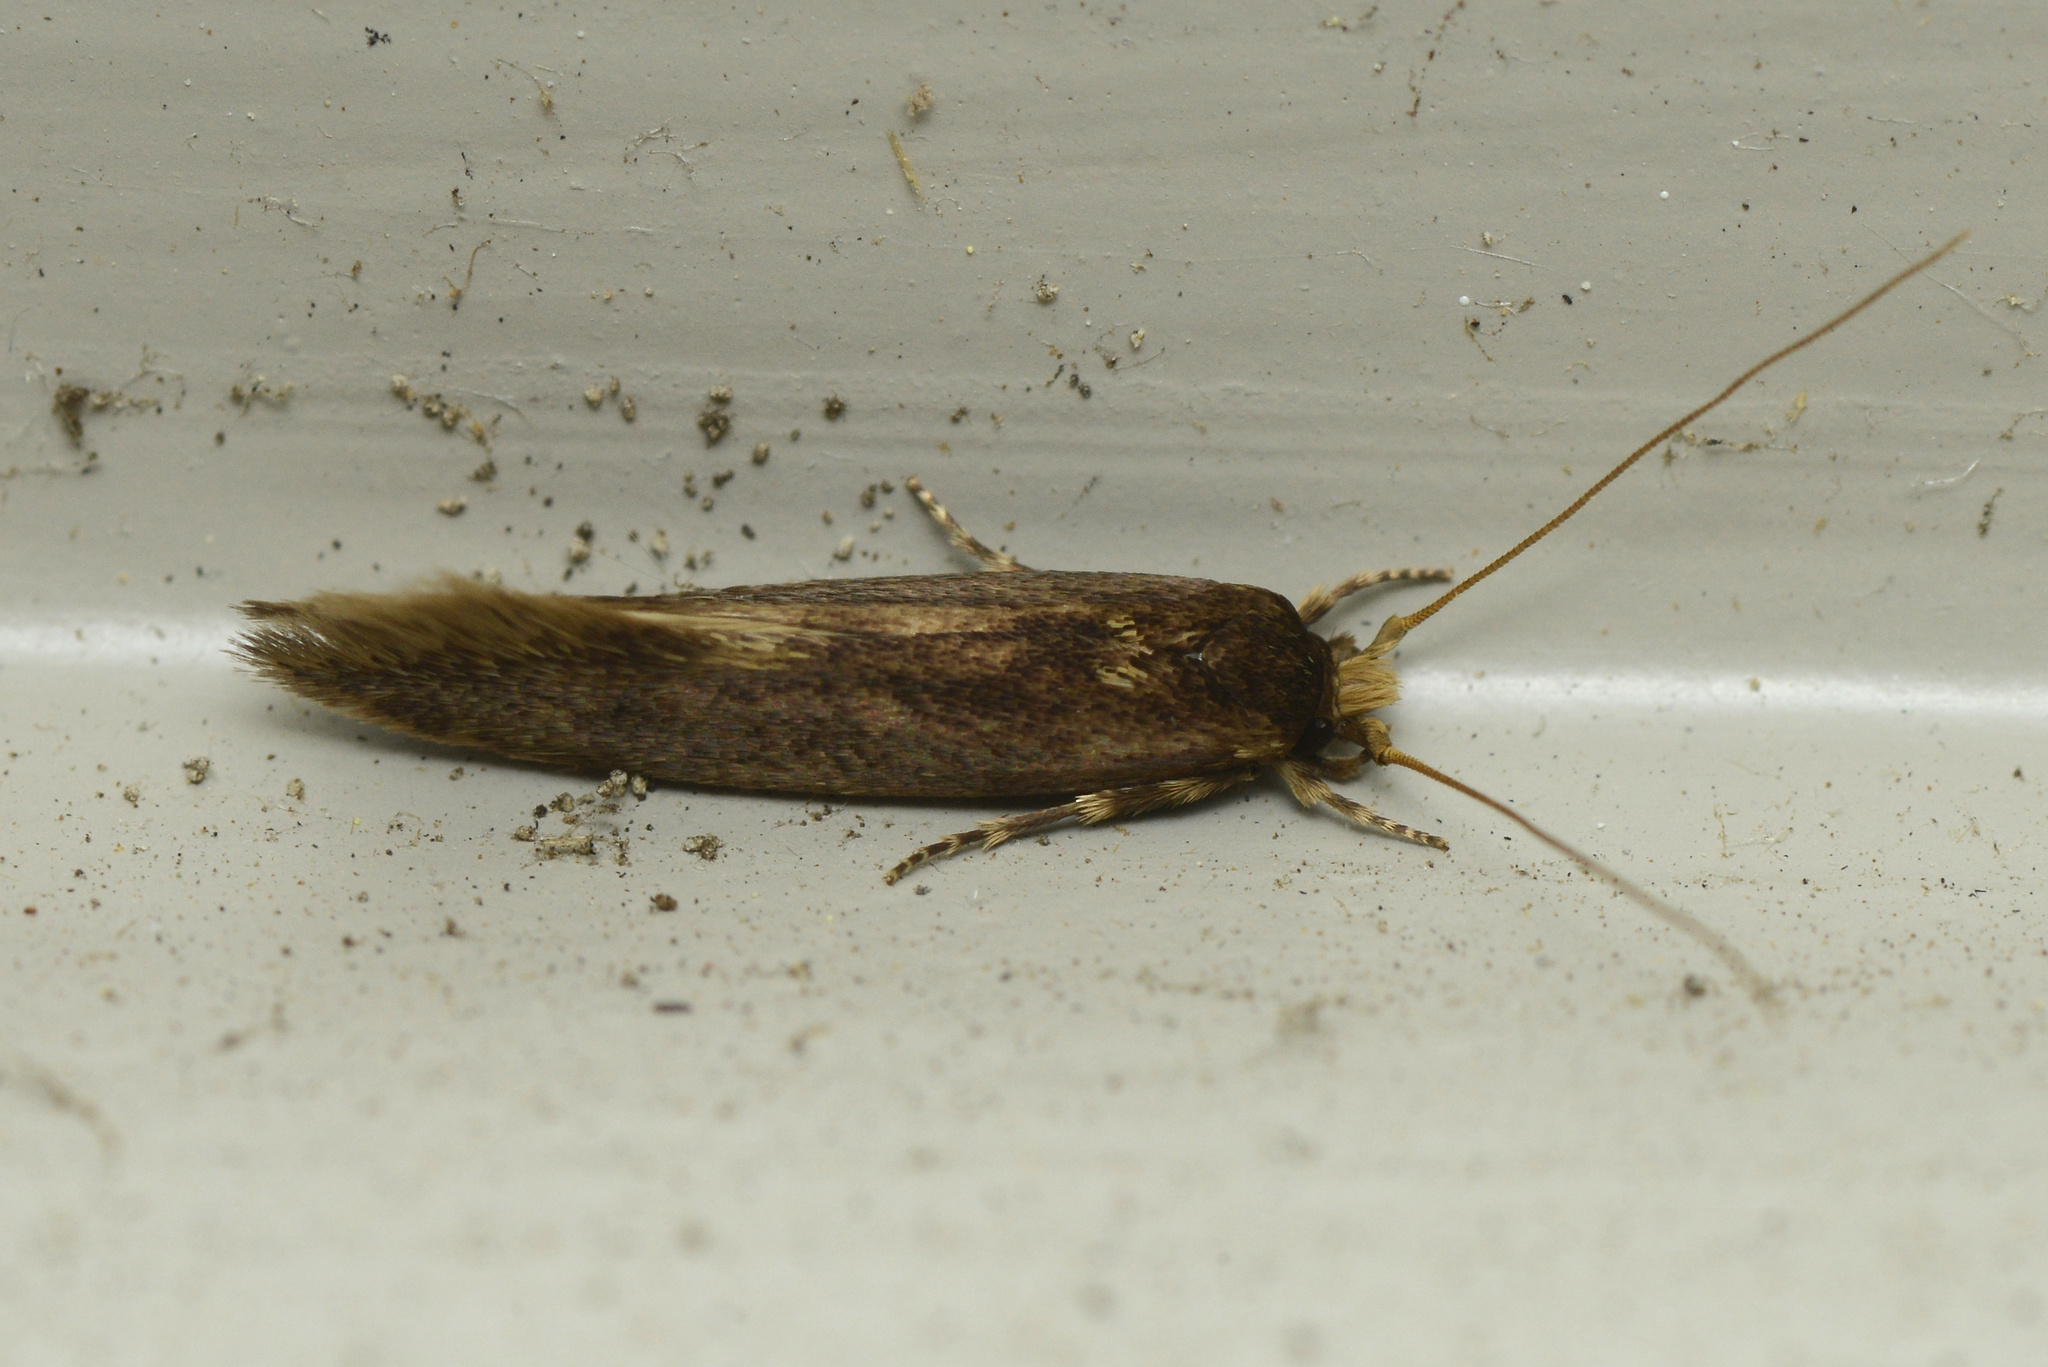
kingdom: Animalia
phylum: Arthropoda
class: Insecta
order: Lepidoptera
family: Tineidae
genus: Opogona
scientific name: Opogona omoscopa
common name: Moth
